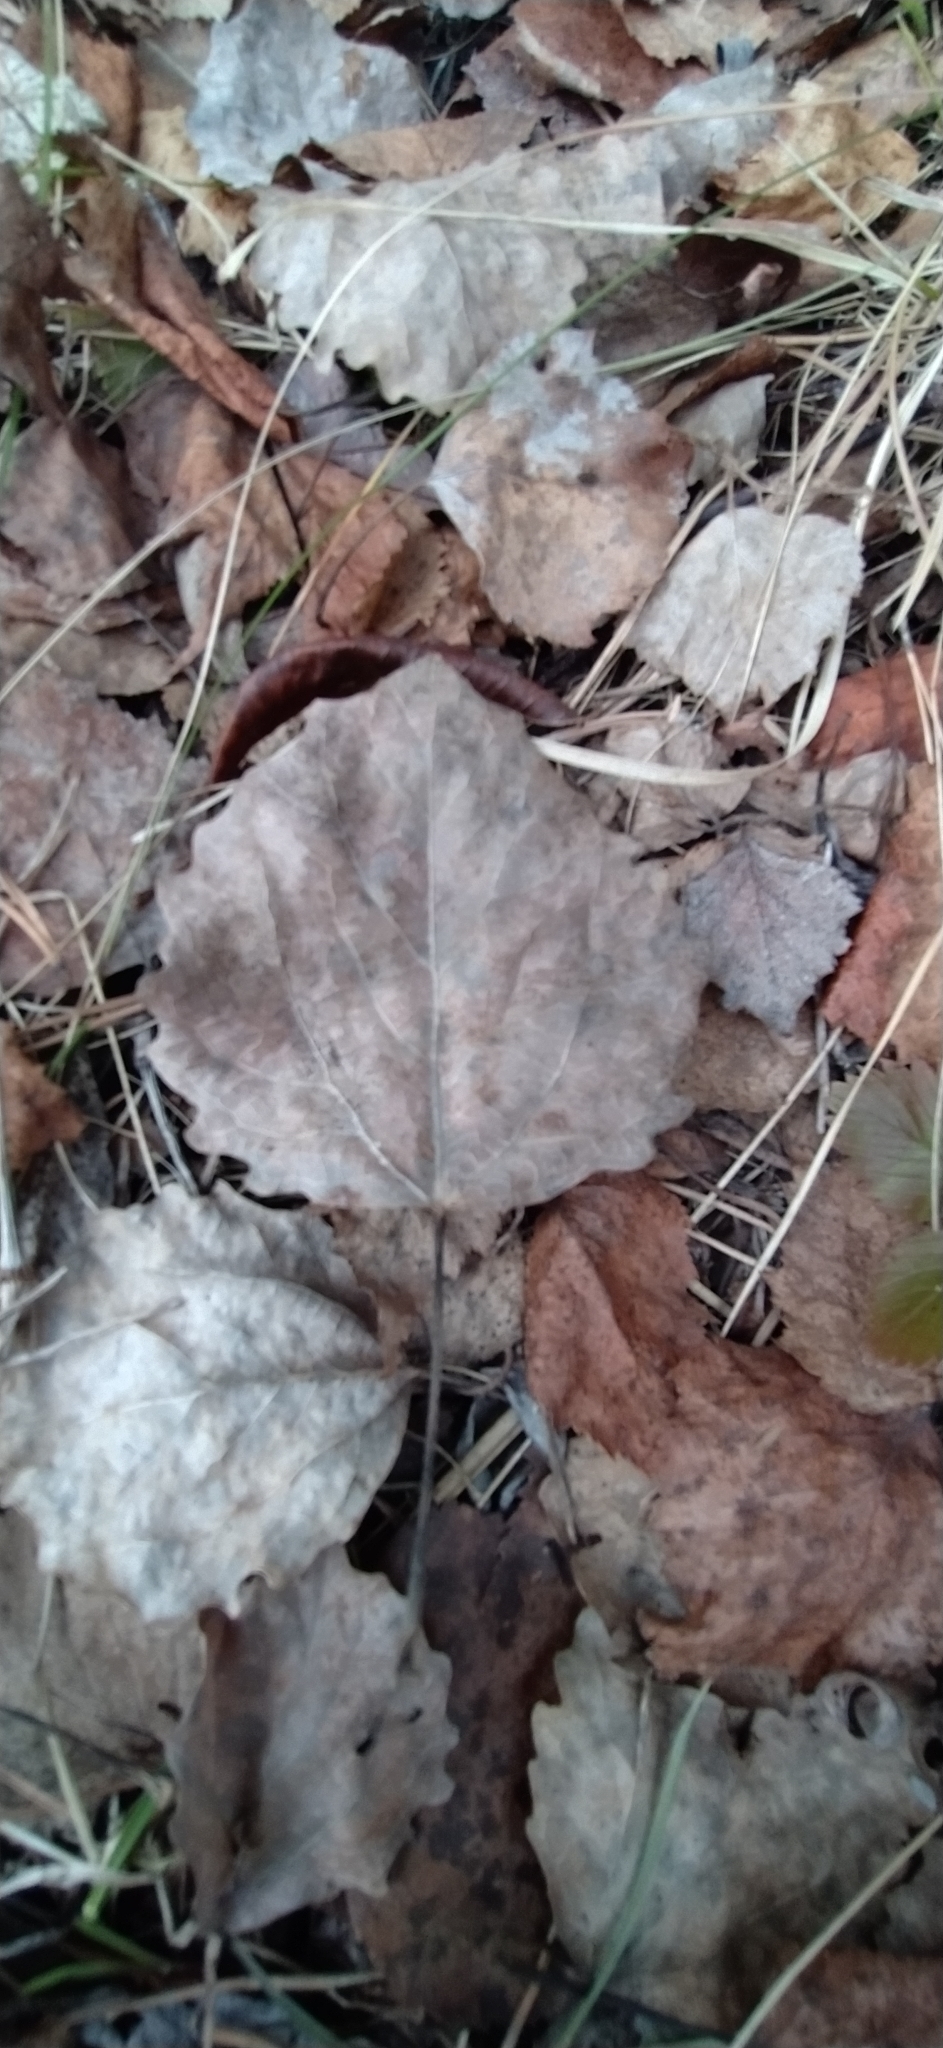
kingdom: Plantae
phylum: Tracheophyta
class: Magnoliopsida
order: Malpighiales
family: Salicaceae
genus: Populus
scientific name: Populus tremula
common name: European aspen
